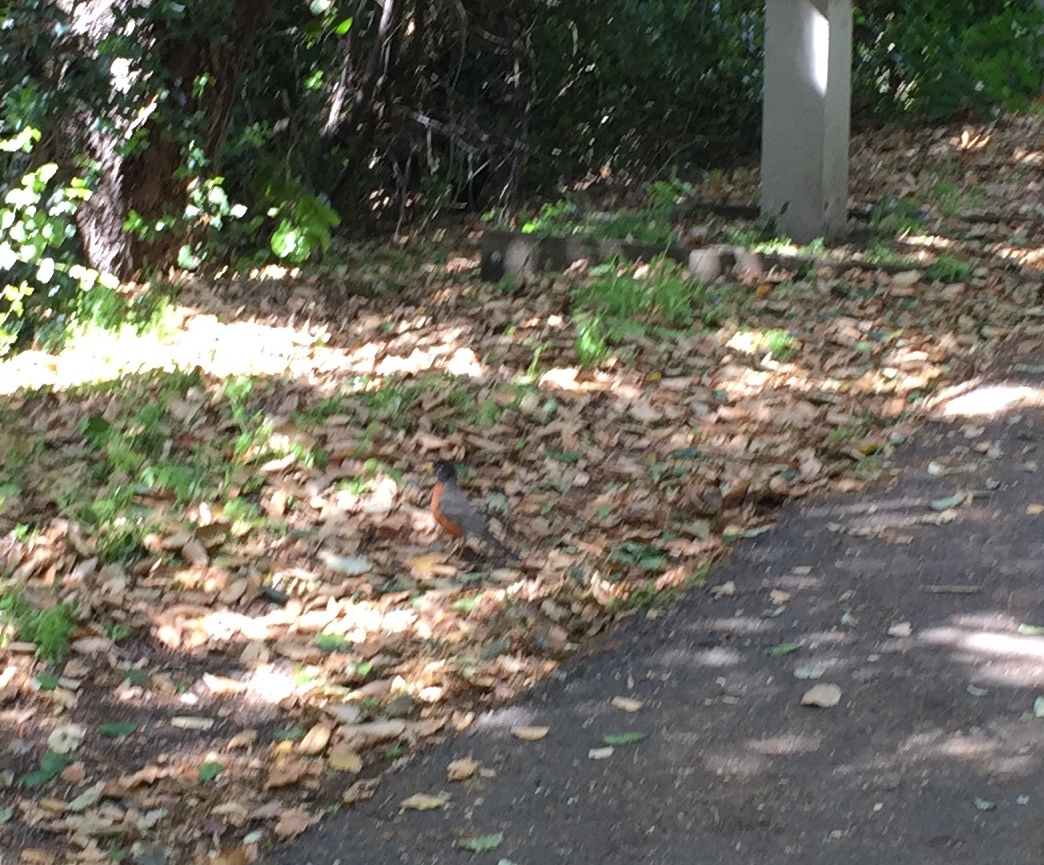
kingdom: Animalia
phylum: Chordata
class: Aves
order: Passeriformes
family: Turdidae
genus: Turdus
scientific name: Turdus migratorius
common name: American robin
